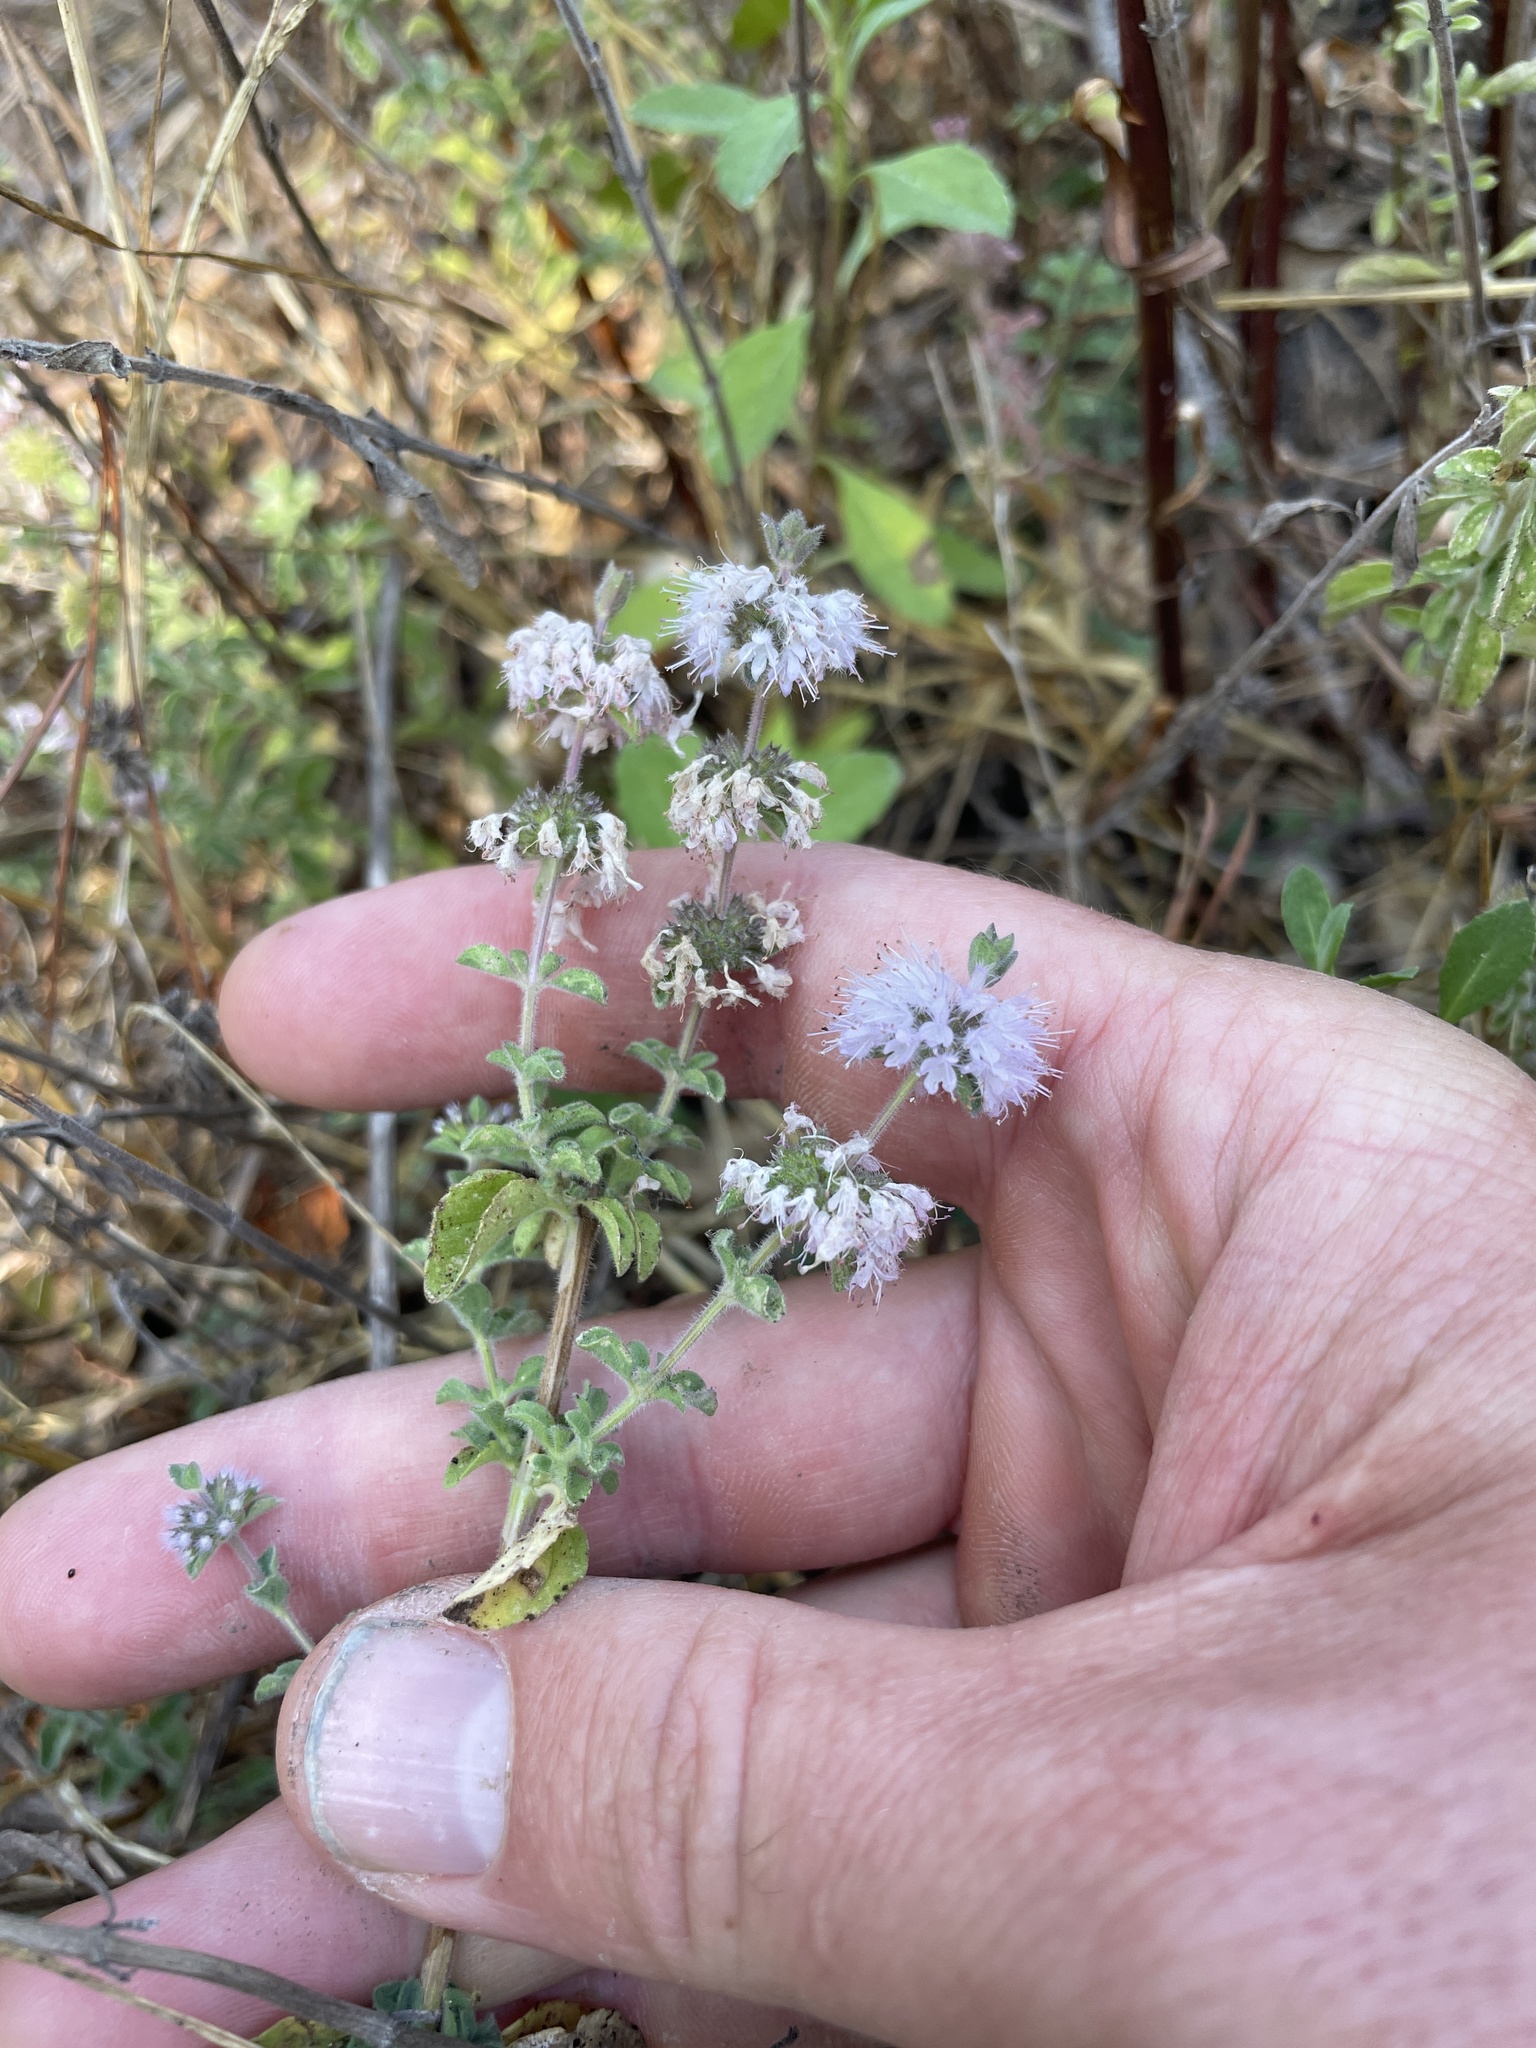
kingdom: Plantae
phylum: Tracheophyta
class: Magnoliopsida
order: Lamiales
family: Lamiaceae
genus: Mentha
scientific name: Mentha pulegium
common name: Pennyroyal
